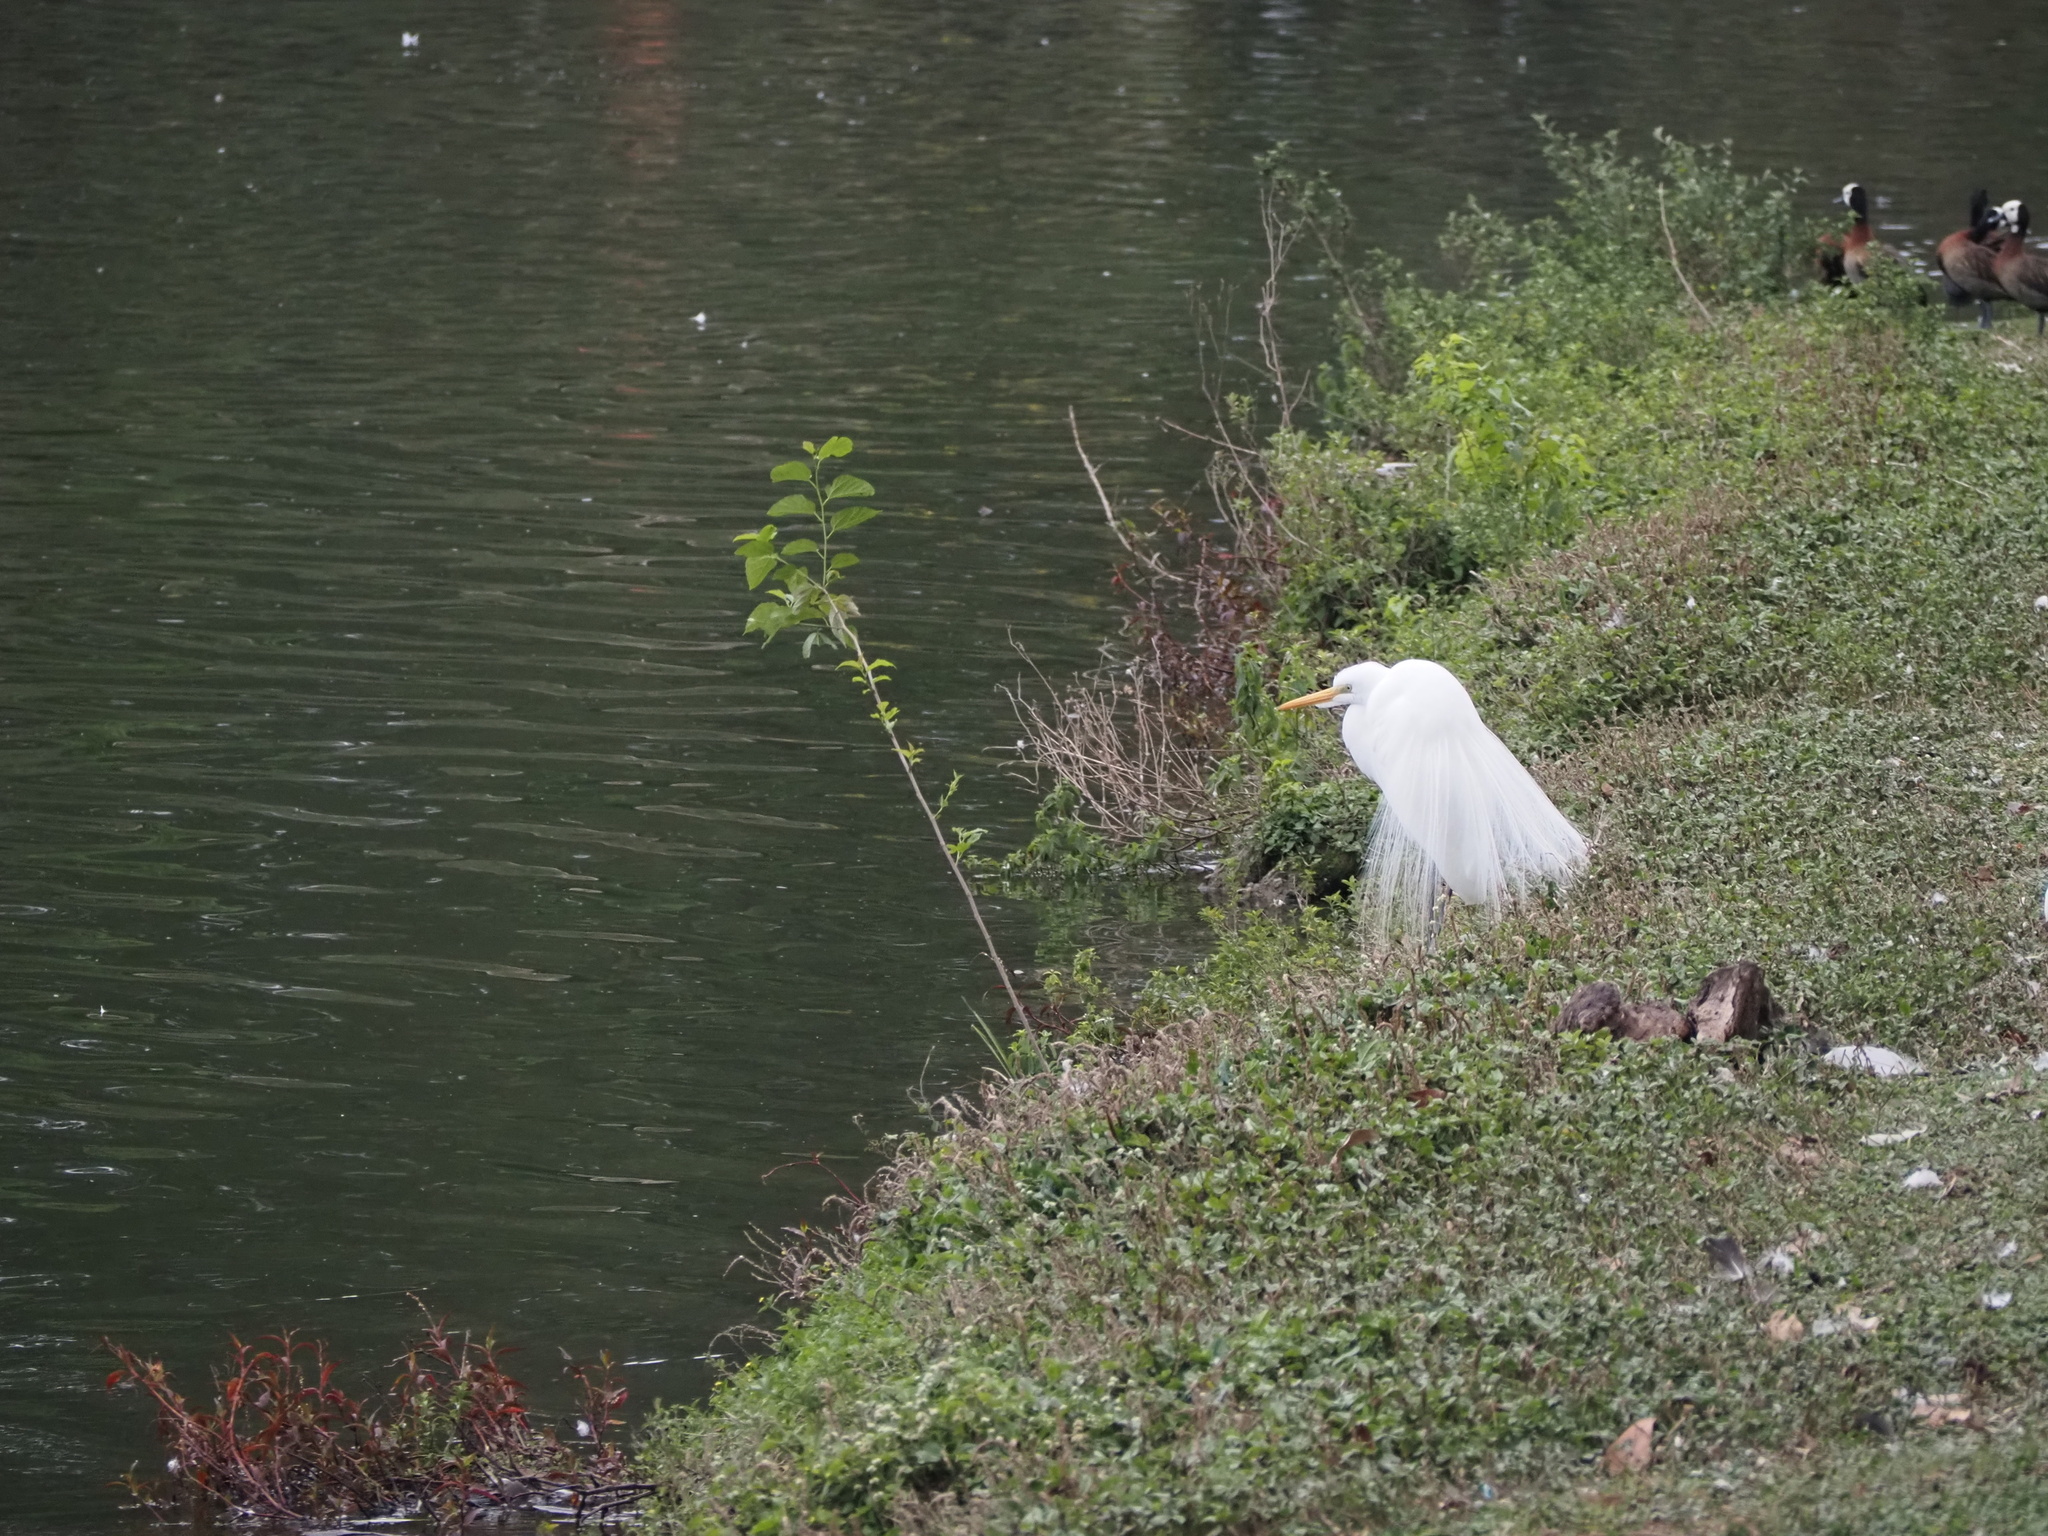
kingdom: Animalia
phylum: Chordata
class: Aves
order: Pelecaniformes
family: Ardeidae
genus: Ardea
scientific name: Ardea alba
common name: Great egret
